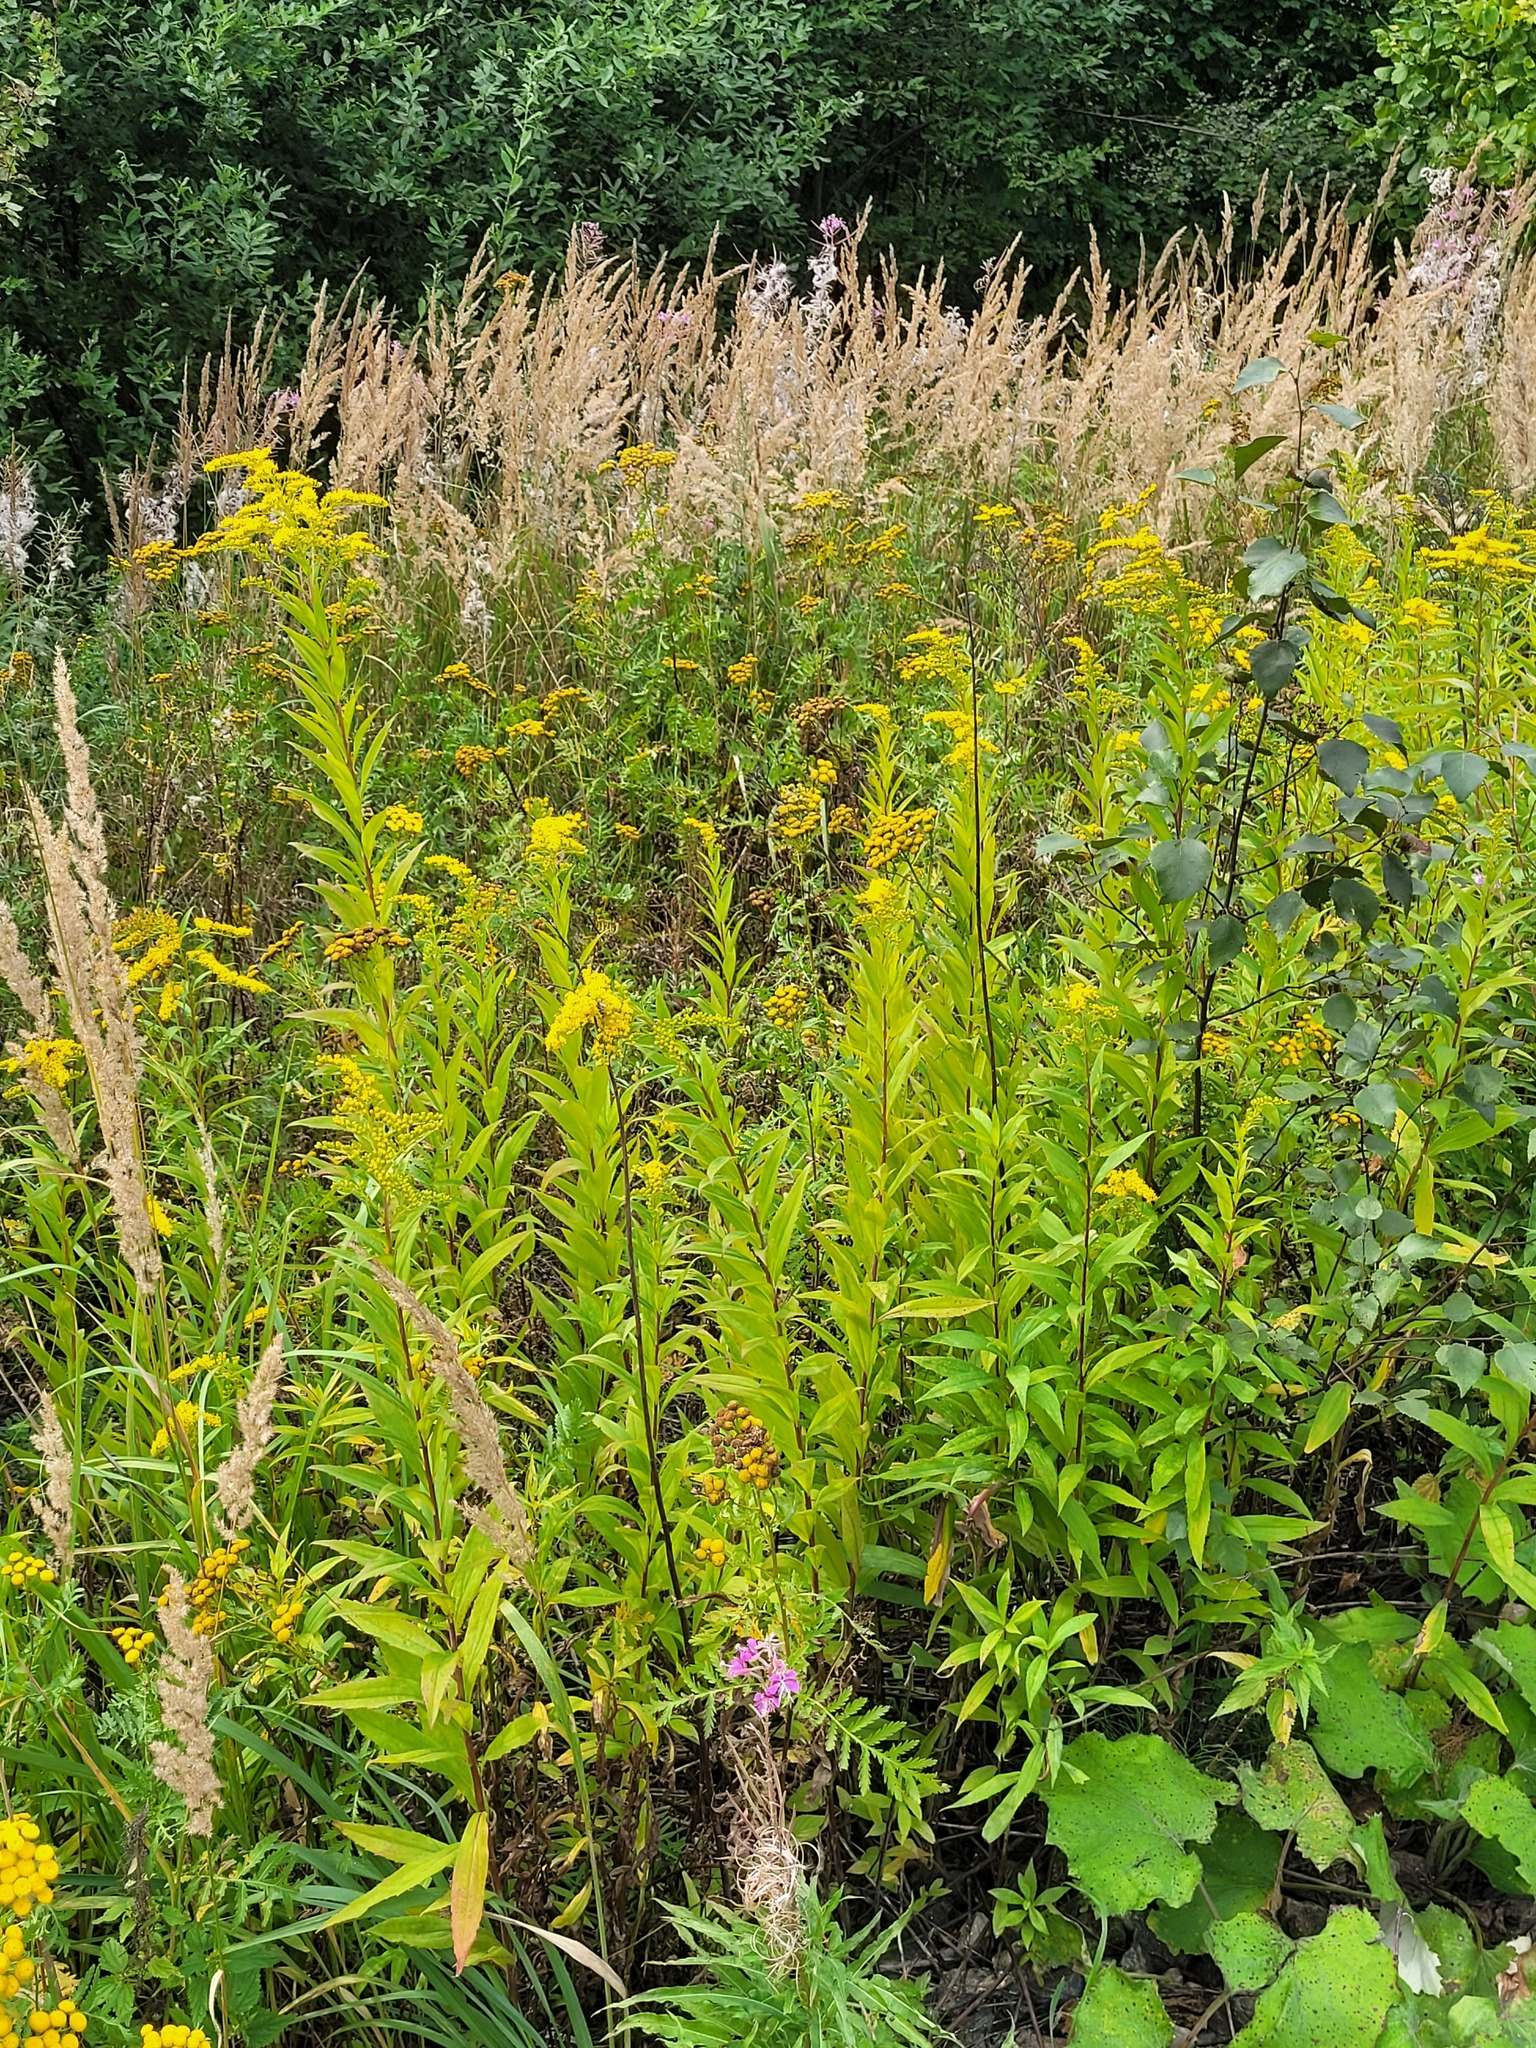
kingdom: Plantae
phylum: Tracheophyta
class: Magnoliopsida
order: Asterales
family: Asteraceae
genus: Solidago
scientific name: Solidago gigantea
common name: Giant goldenrod
